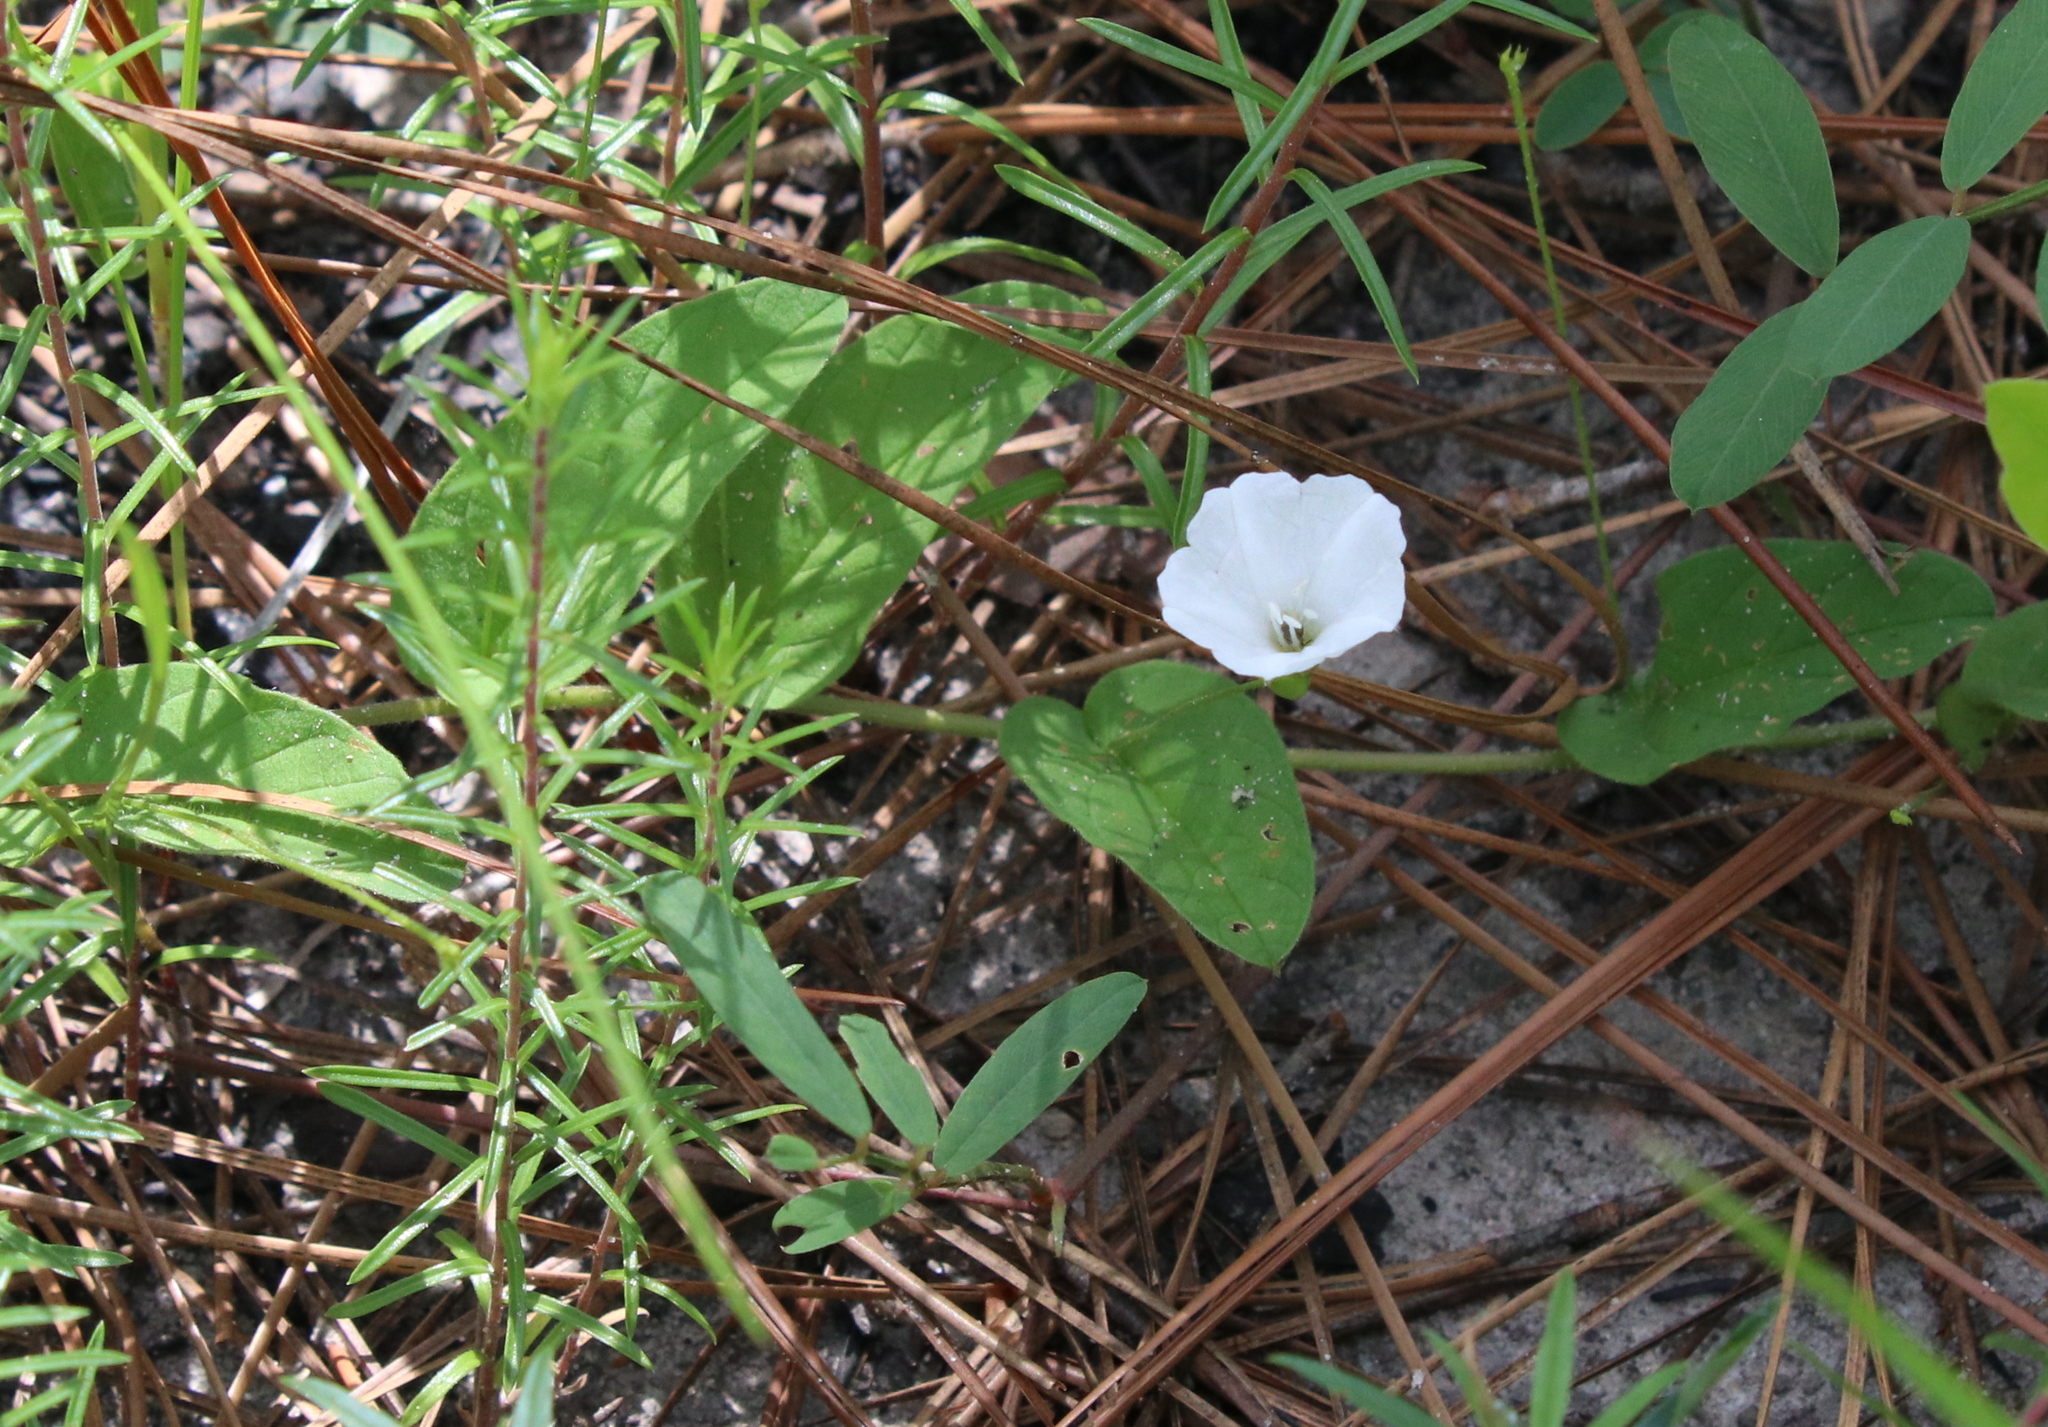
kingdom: Plantae
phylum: Tracheophyta
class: Magnoliopsida
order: Solanales
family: Convolvulaceae
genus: Stylisma
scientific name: Stylisma humistrata
